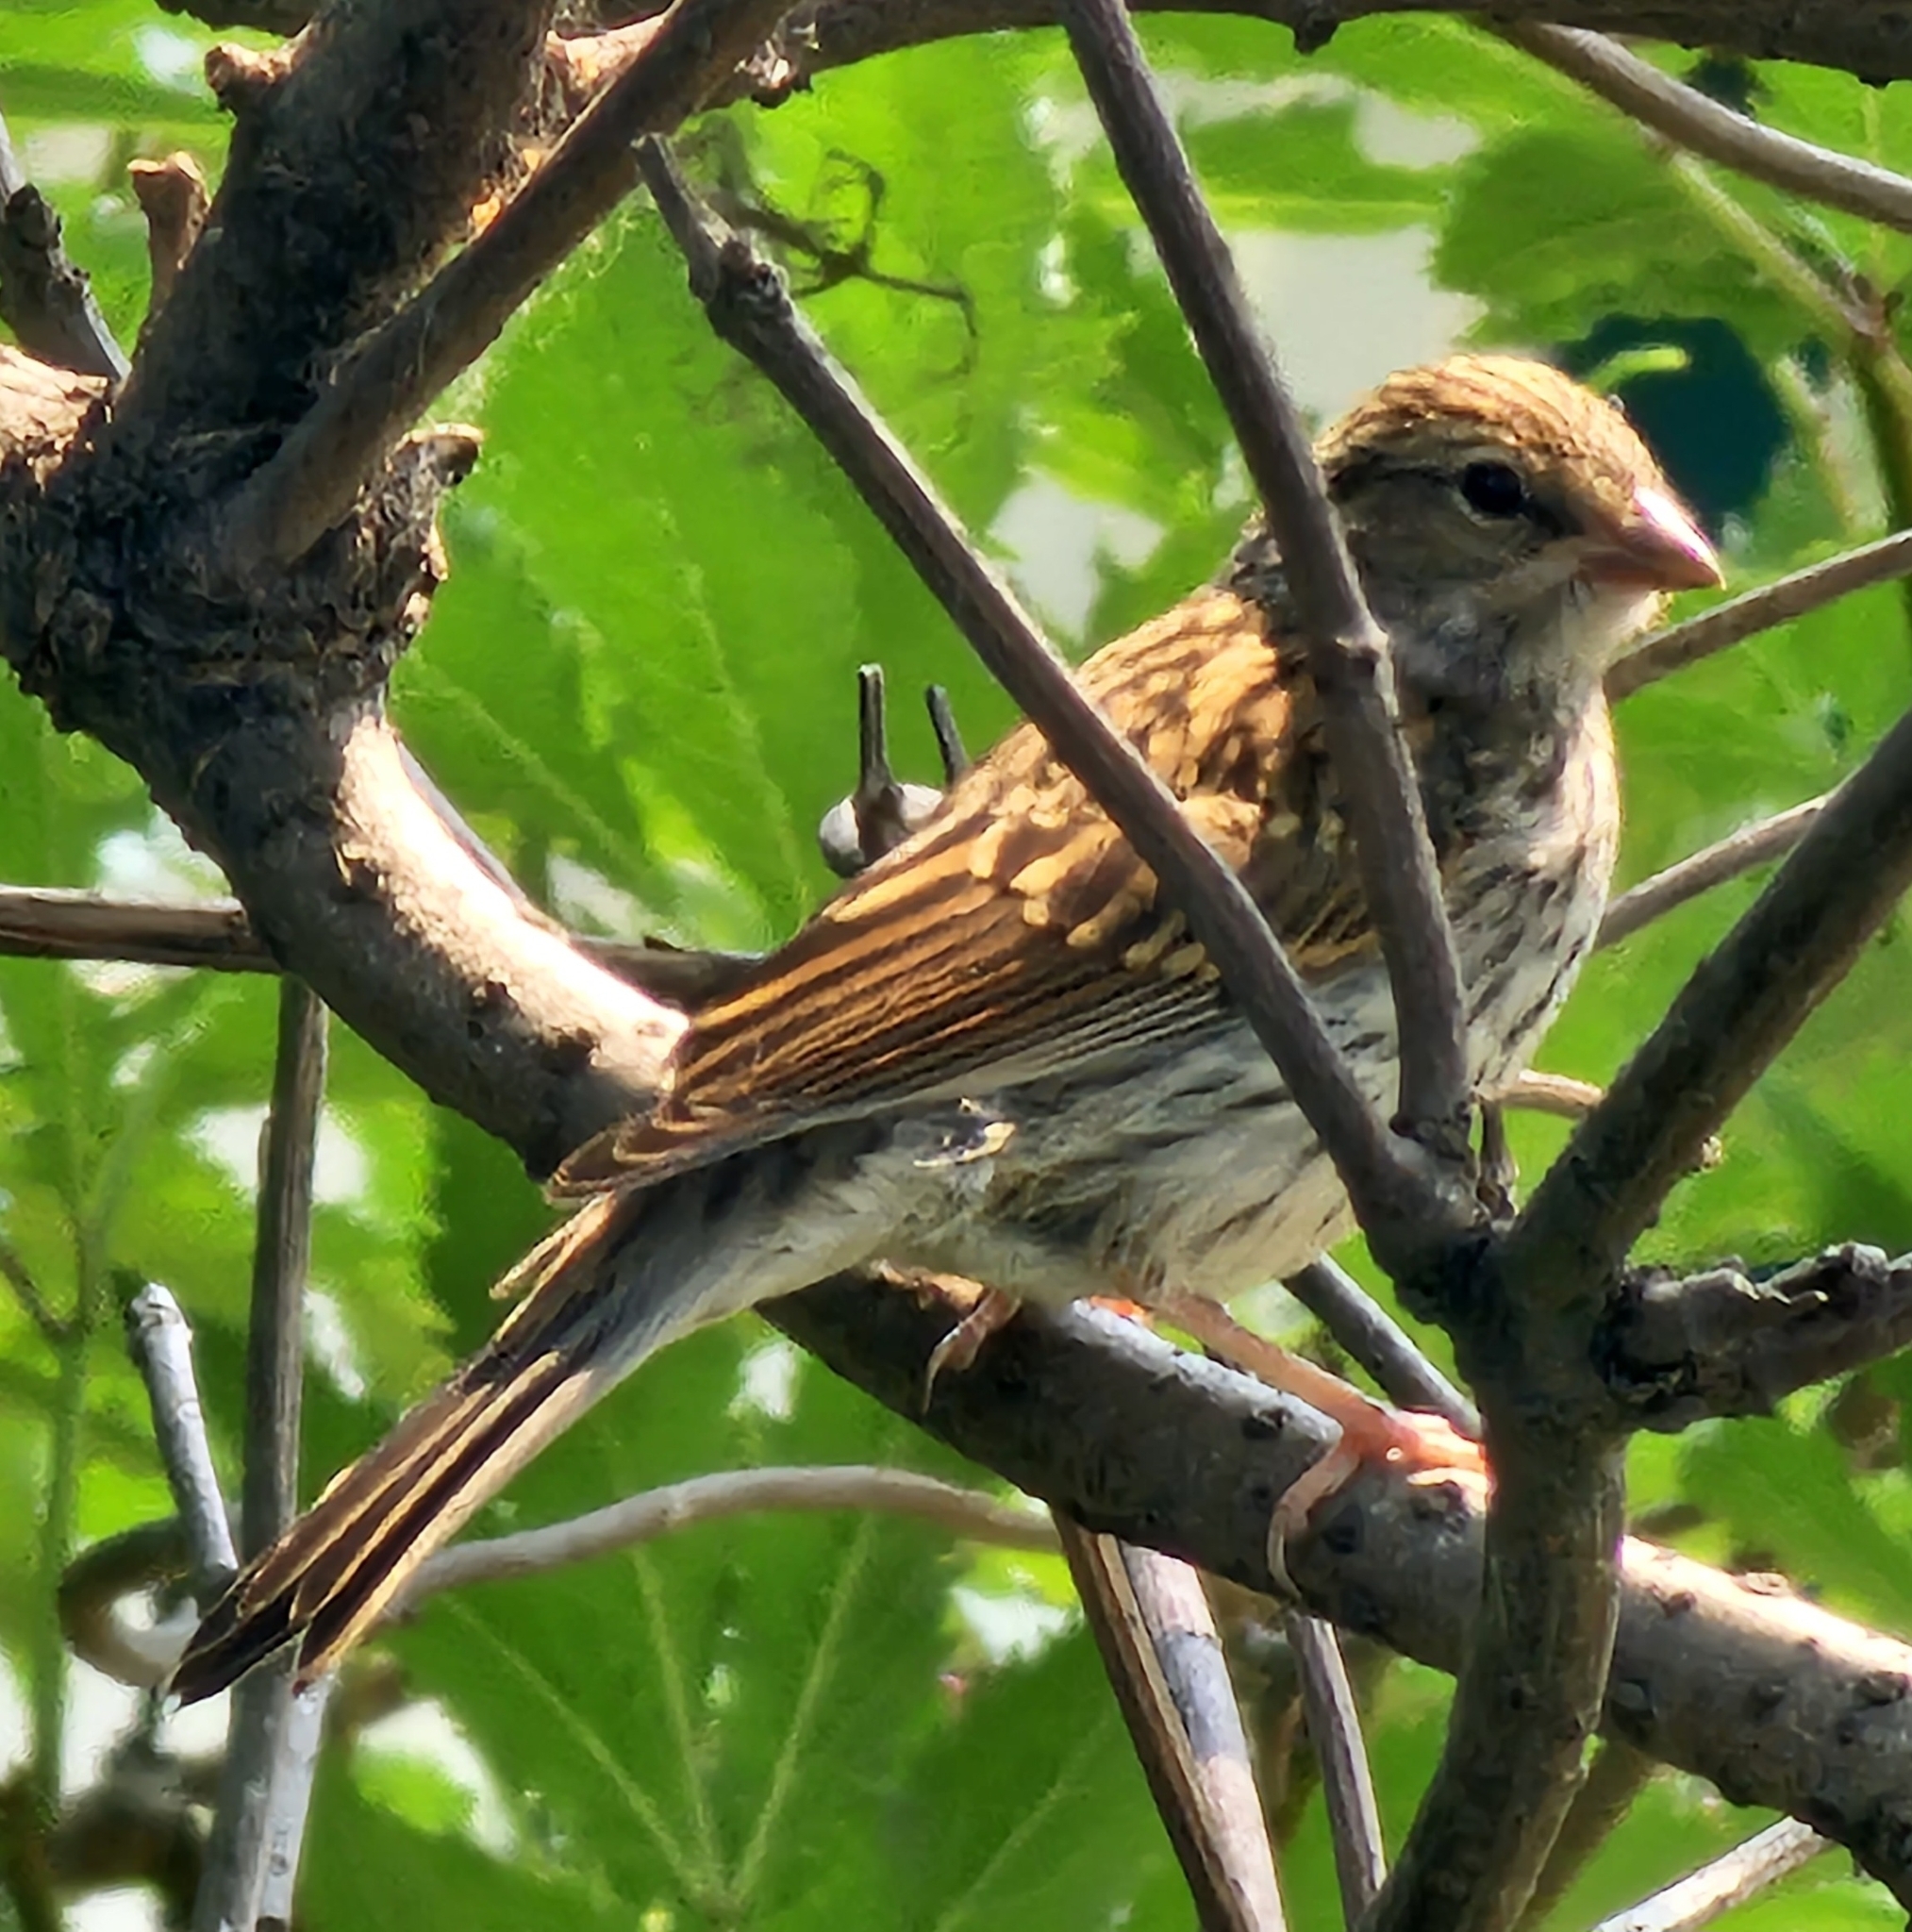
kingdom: Animalia
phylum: Chordata
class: Aves
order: Passeriformes
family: Passerellidae
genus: Spizella
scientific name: Spizella passerina
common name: Chipping sparrow
